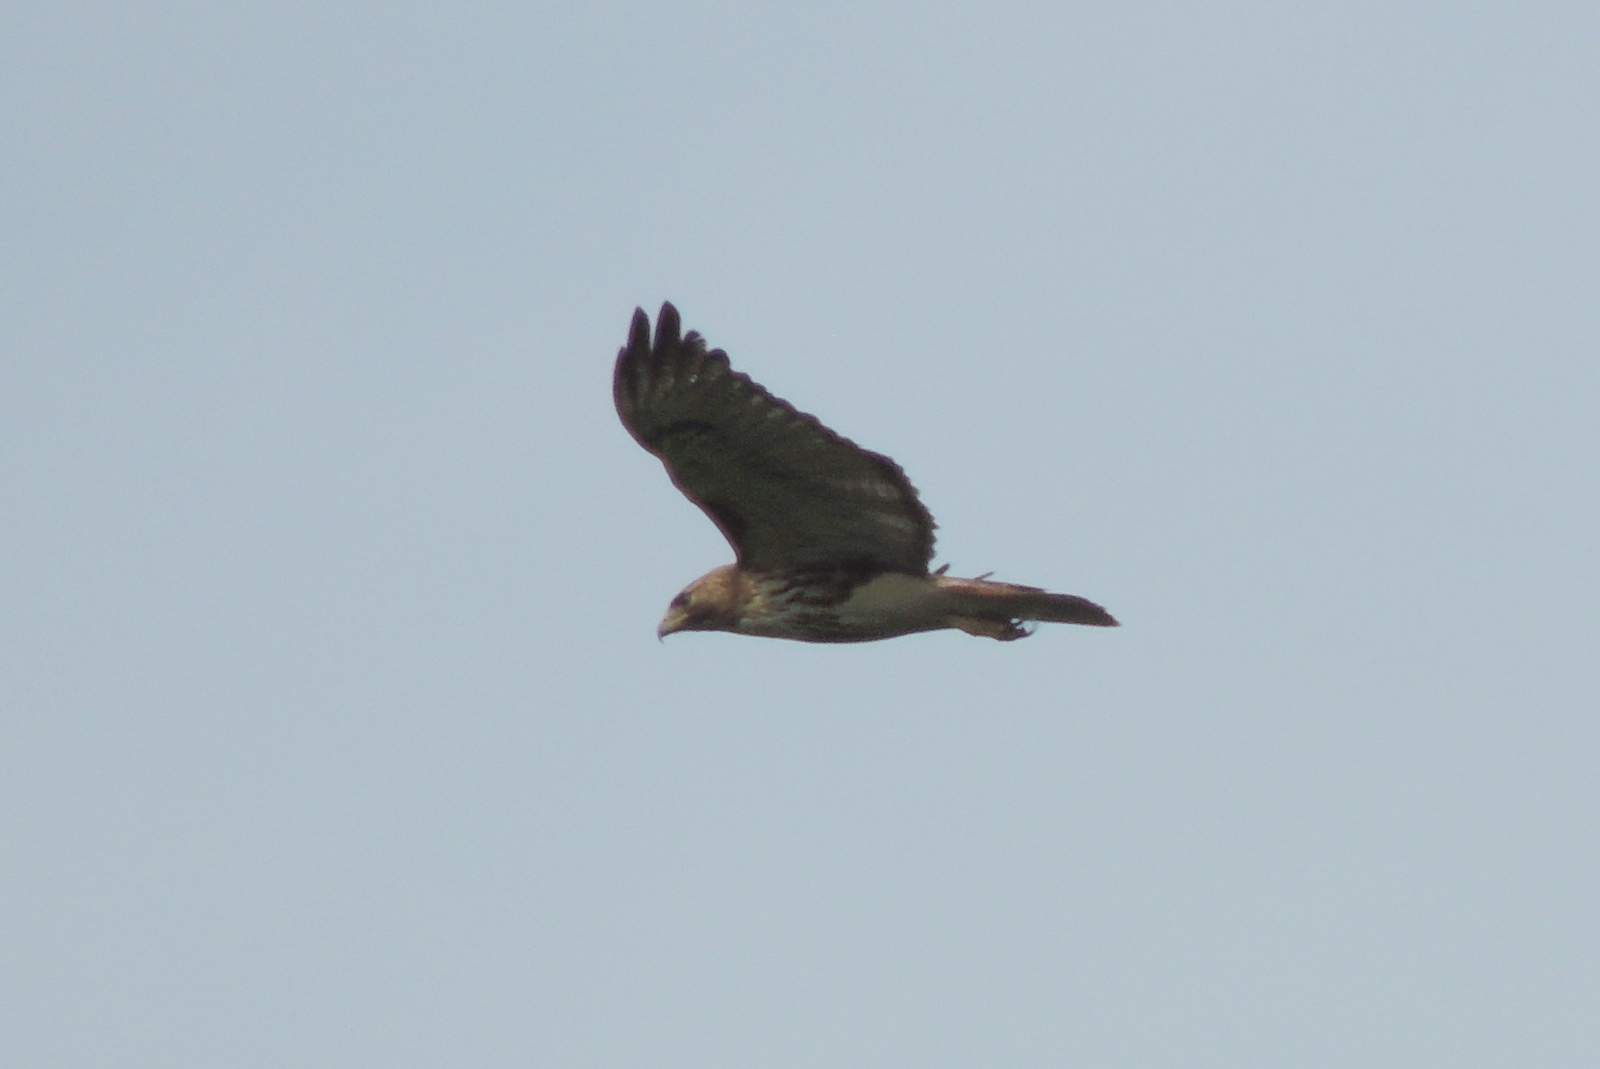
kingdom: Animalia
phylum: Chordata
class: Aves
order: Accipitriformes
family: Accipitridae
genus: Buteo
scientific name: Buteo jamaicensis
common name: Red-tailed hawk
